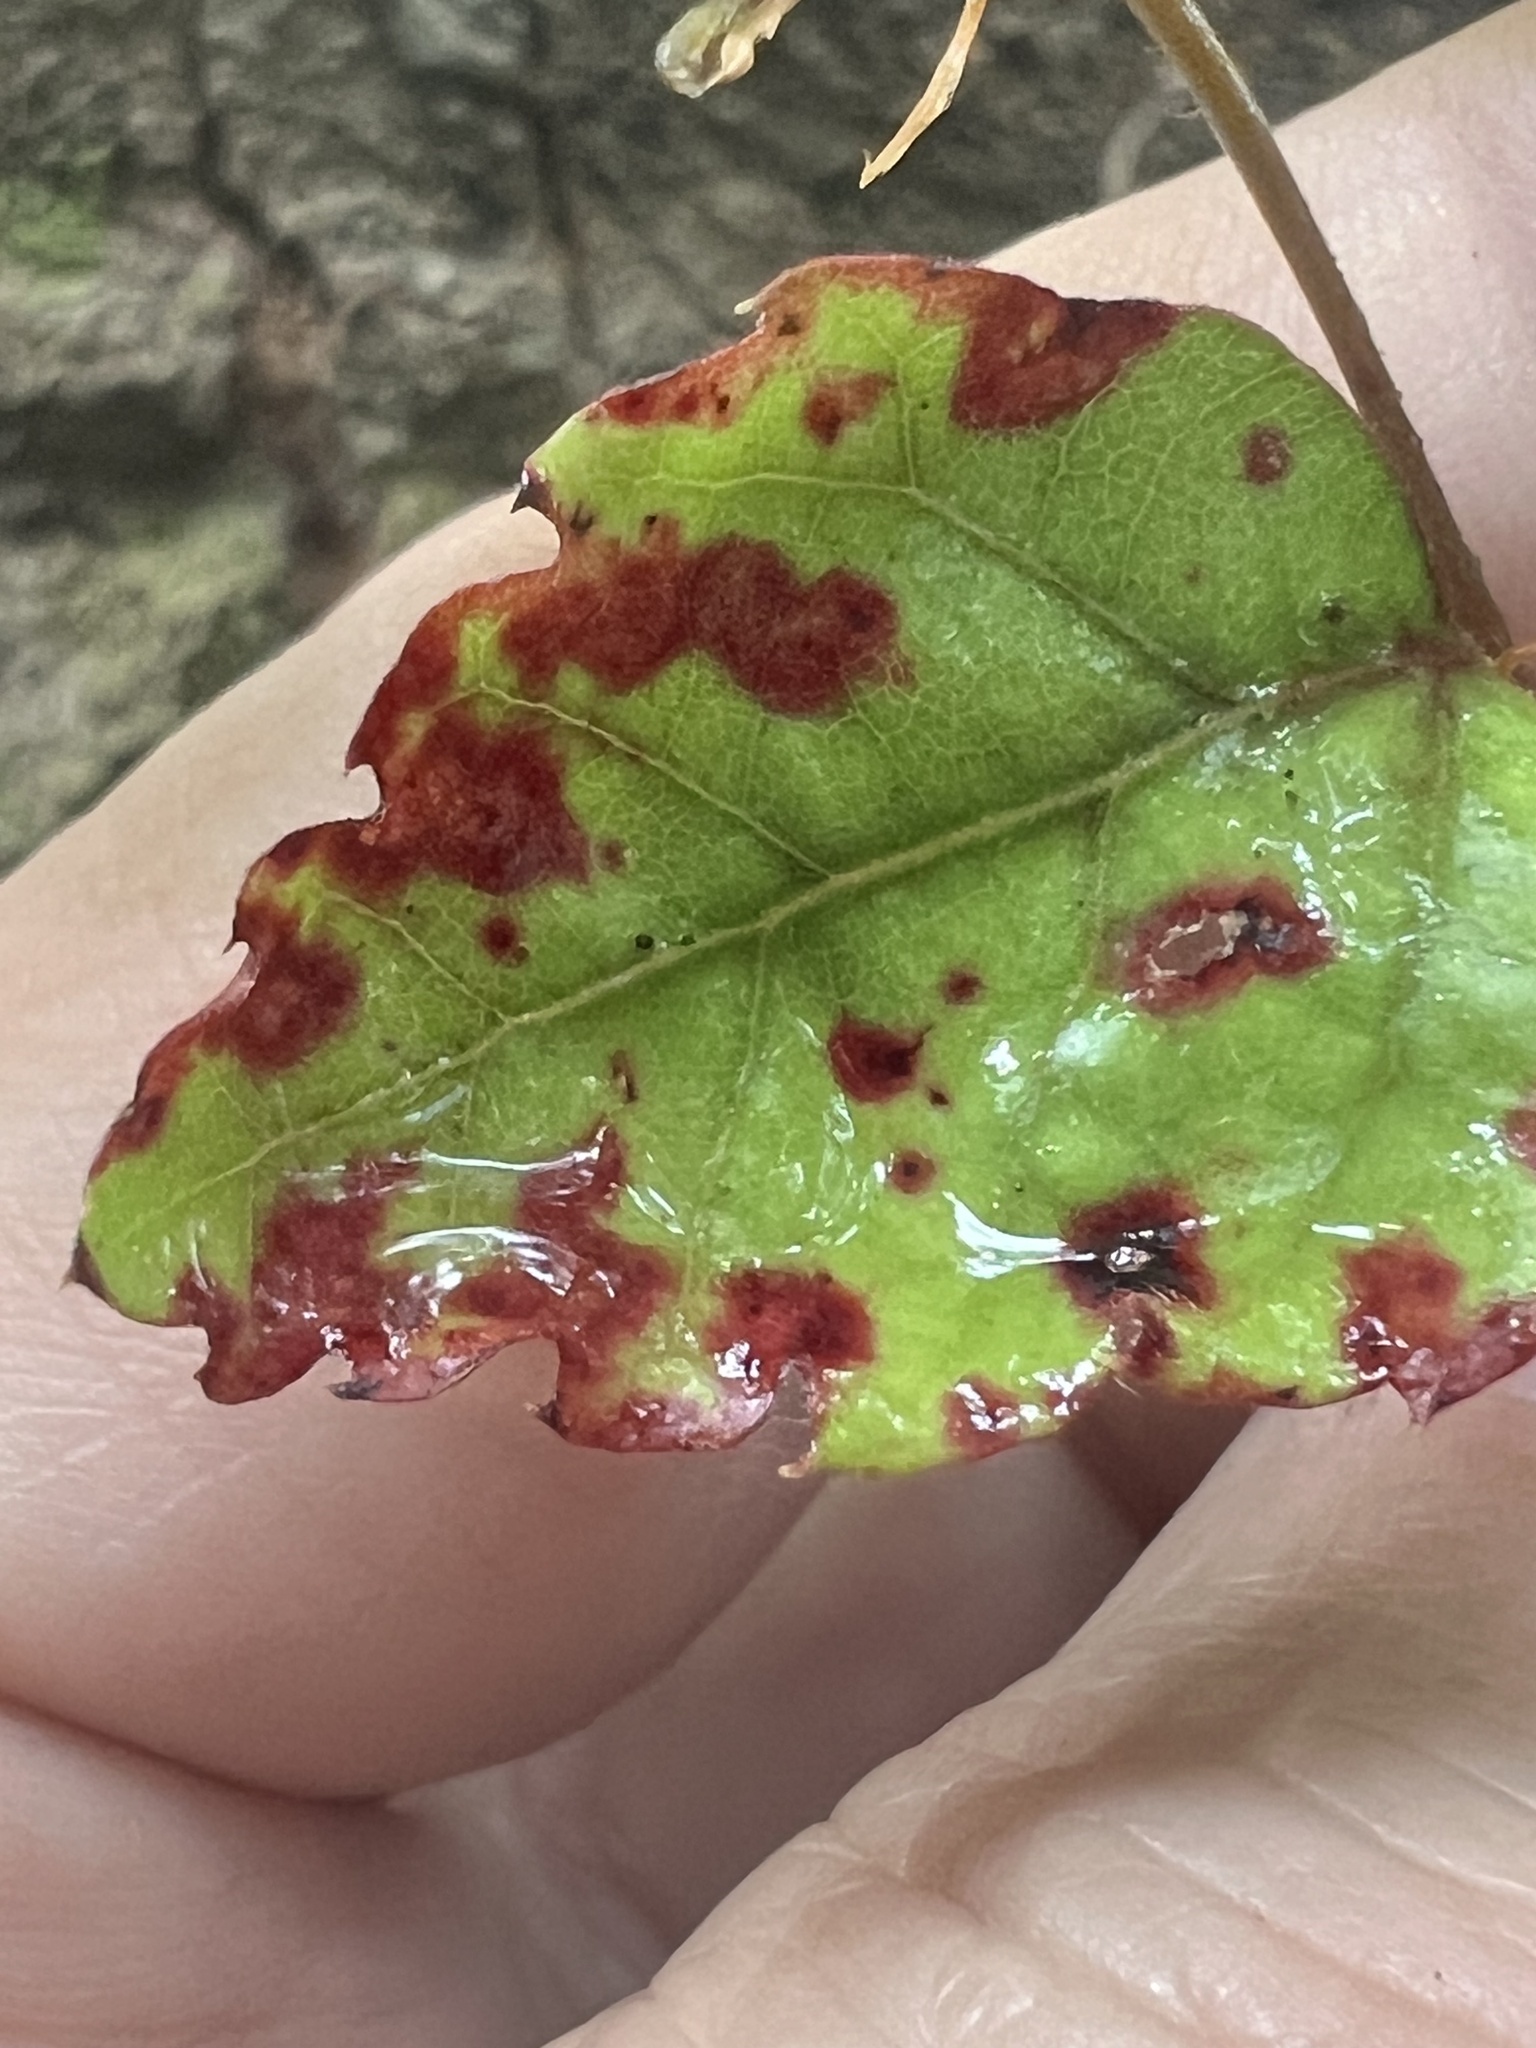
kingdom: Plantae
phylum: Tracheophyta
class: Magnoliopsida
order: Fagales
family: Nothofagaceae
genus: Nothofagus
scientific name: Nothofagus fusca
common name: Red beech
